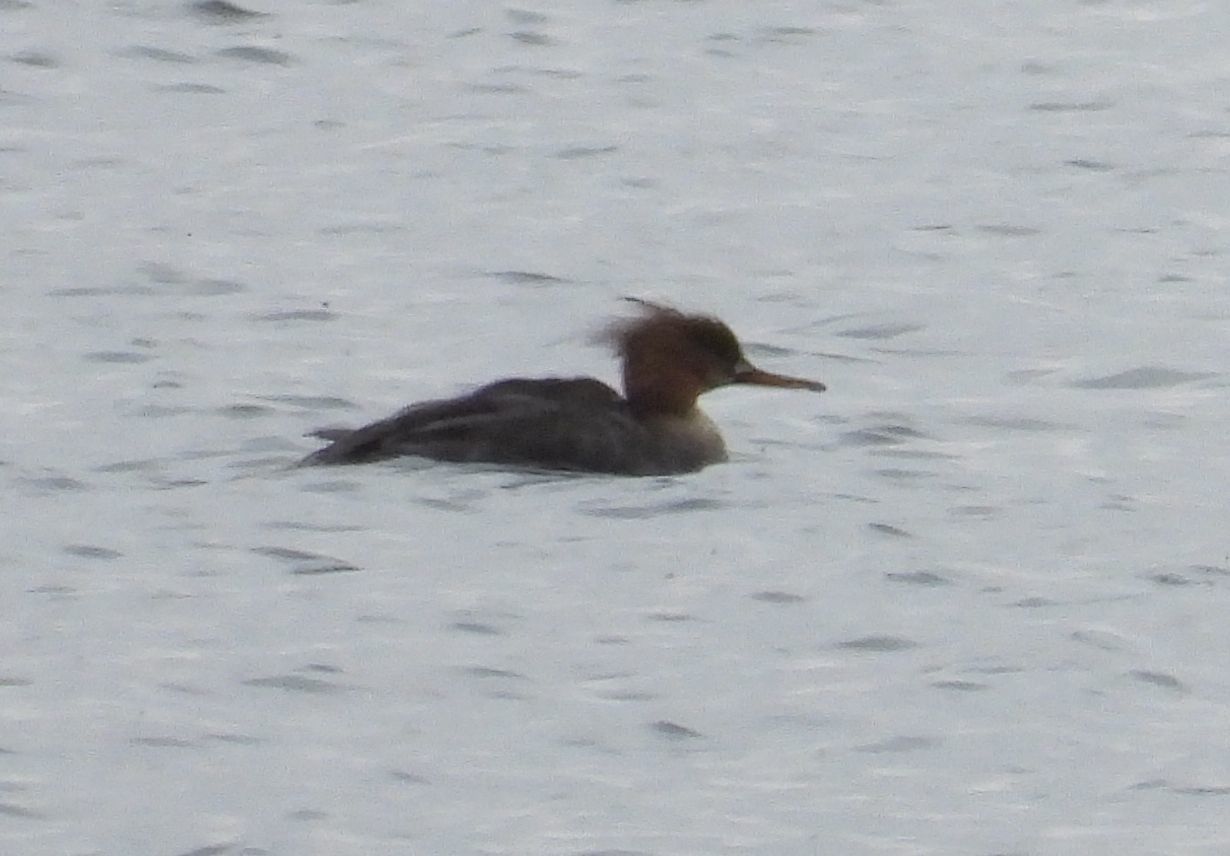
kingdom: Animalia
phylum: Chordata
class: Aves
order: Anseriformes
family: Anatidae
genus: Mergus
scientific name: Mergus serrator
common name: Red-breasted merganser
